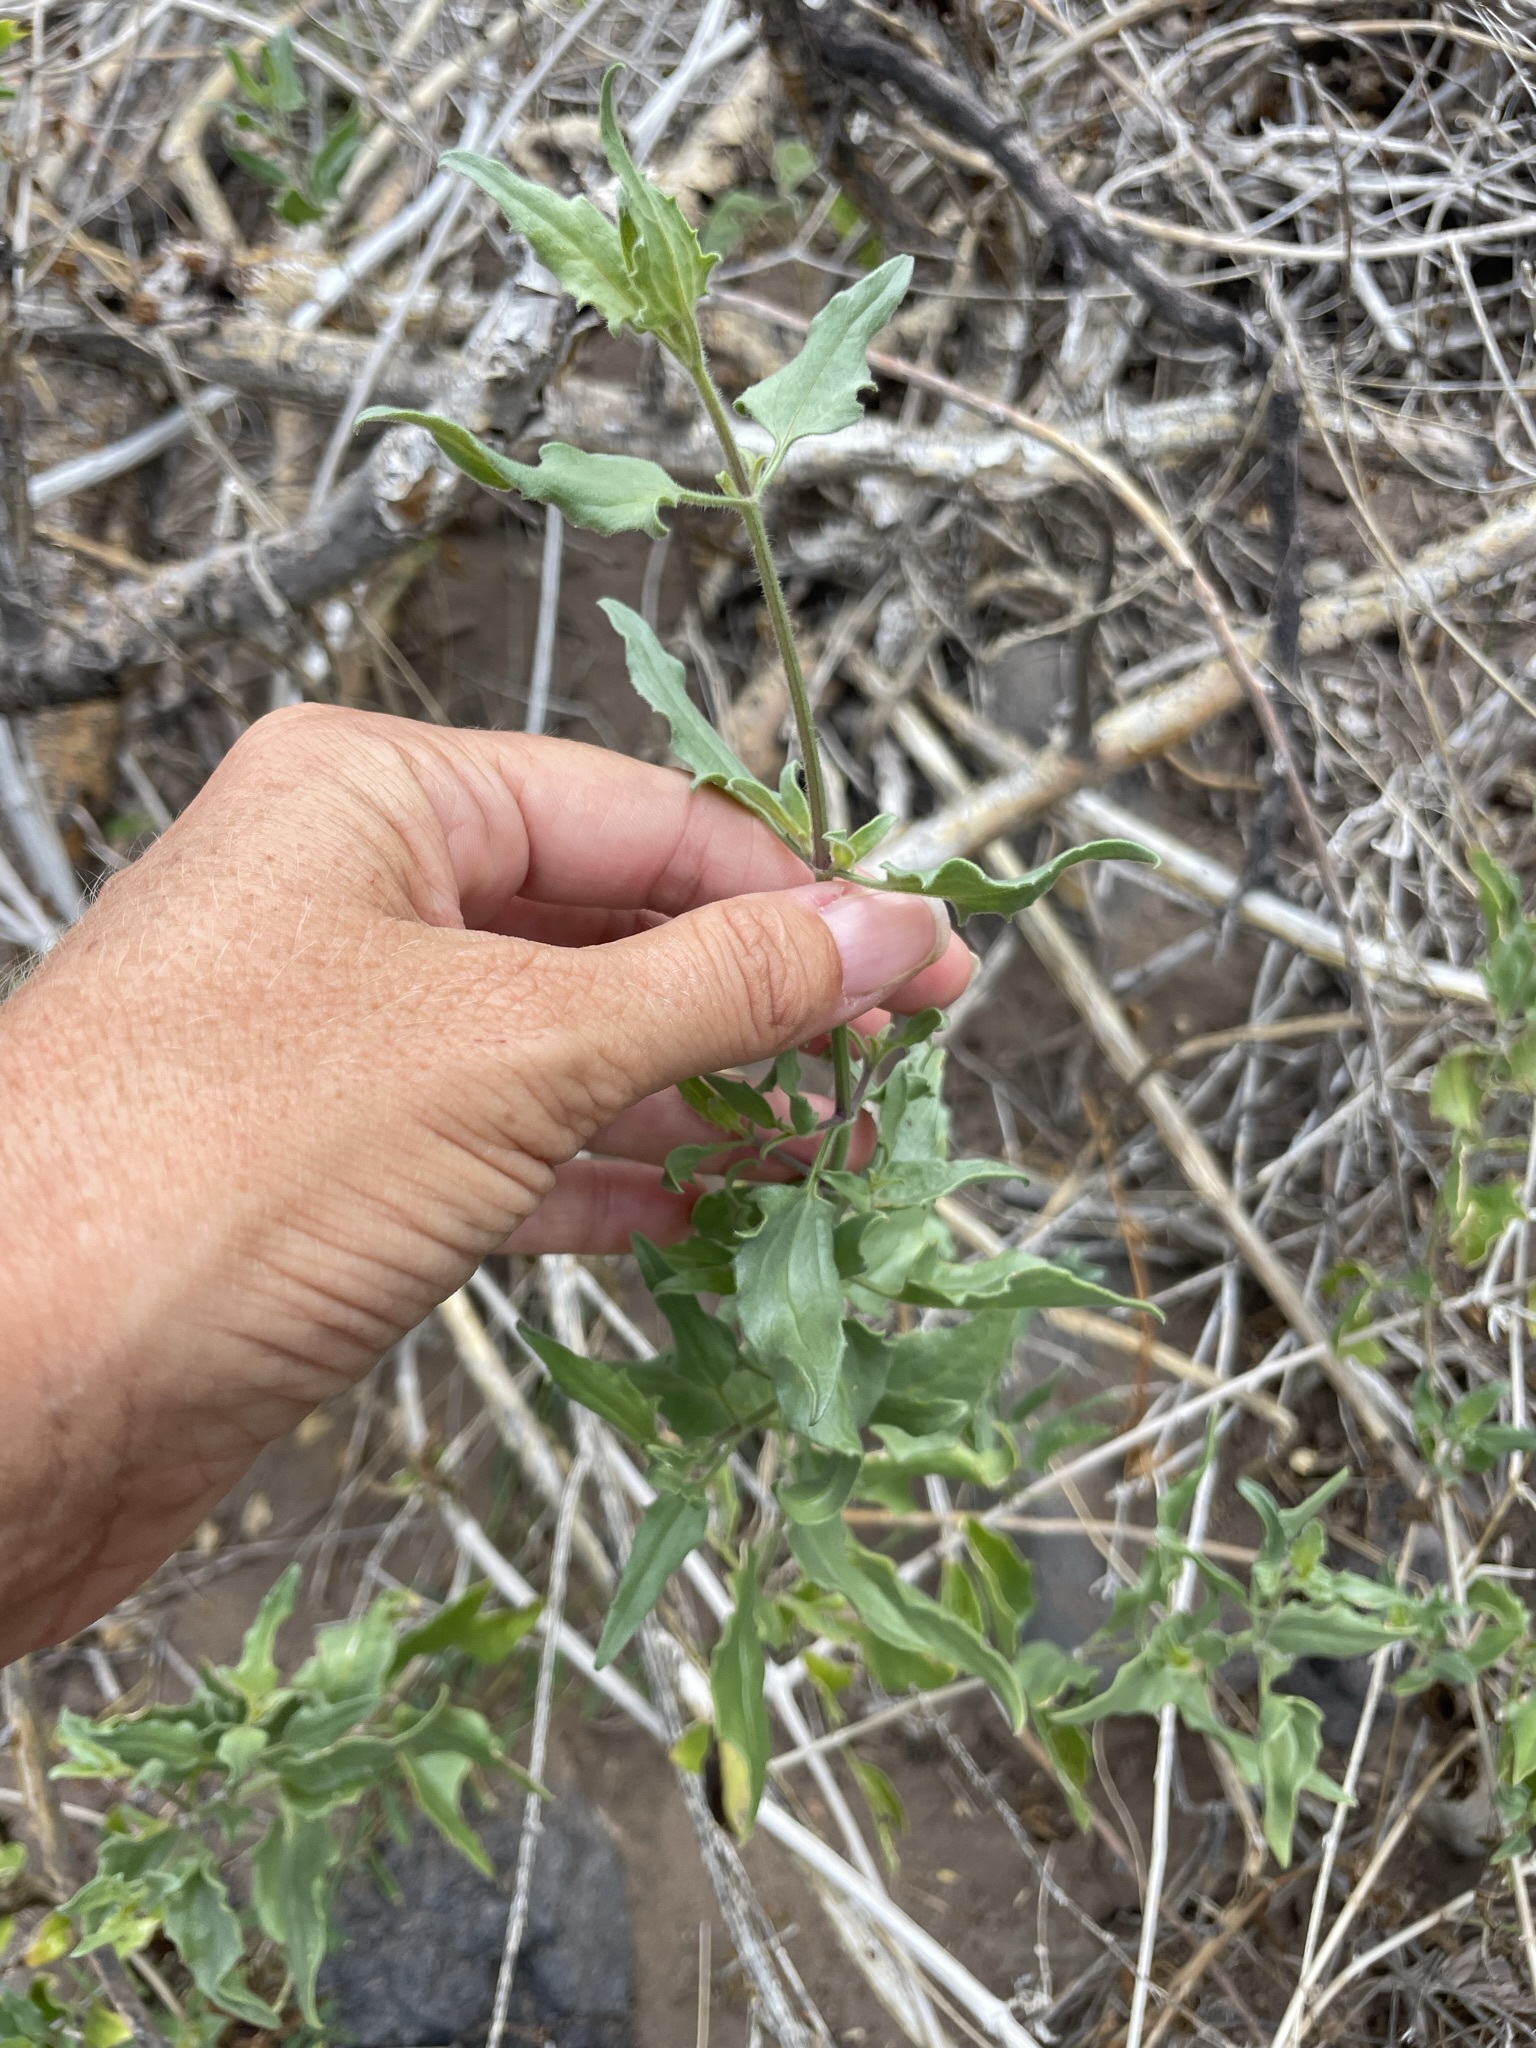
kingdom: Plantae
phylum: Tracheophyta
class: Magnoliopsida
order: Asterales
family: Asteraceae
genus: Bebbia
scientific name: Bebbia atriplicifolia
